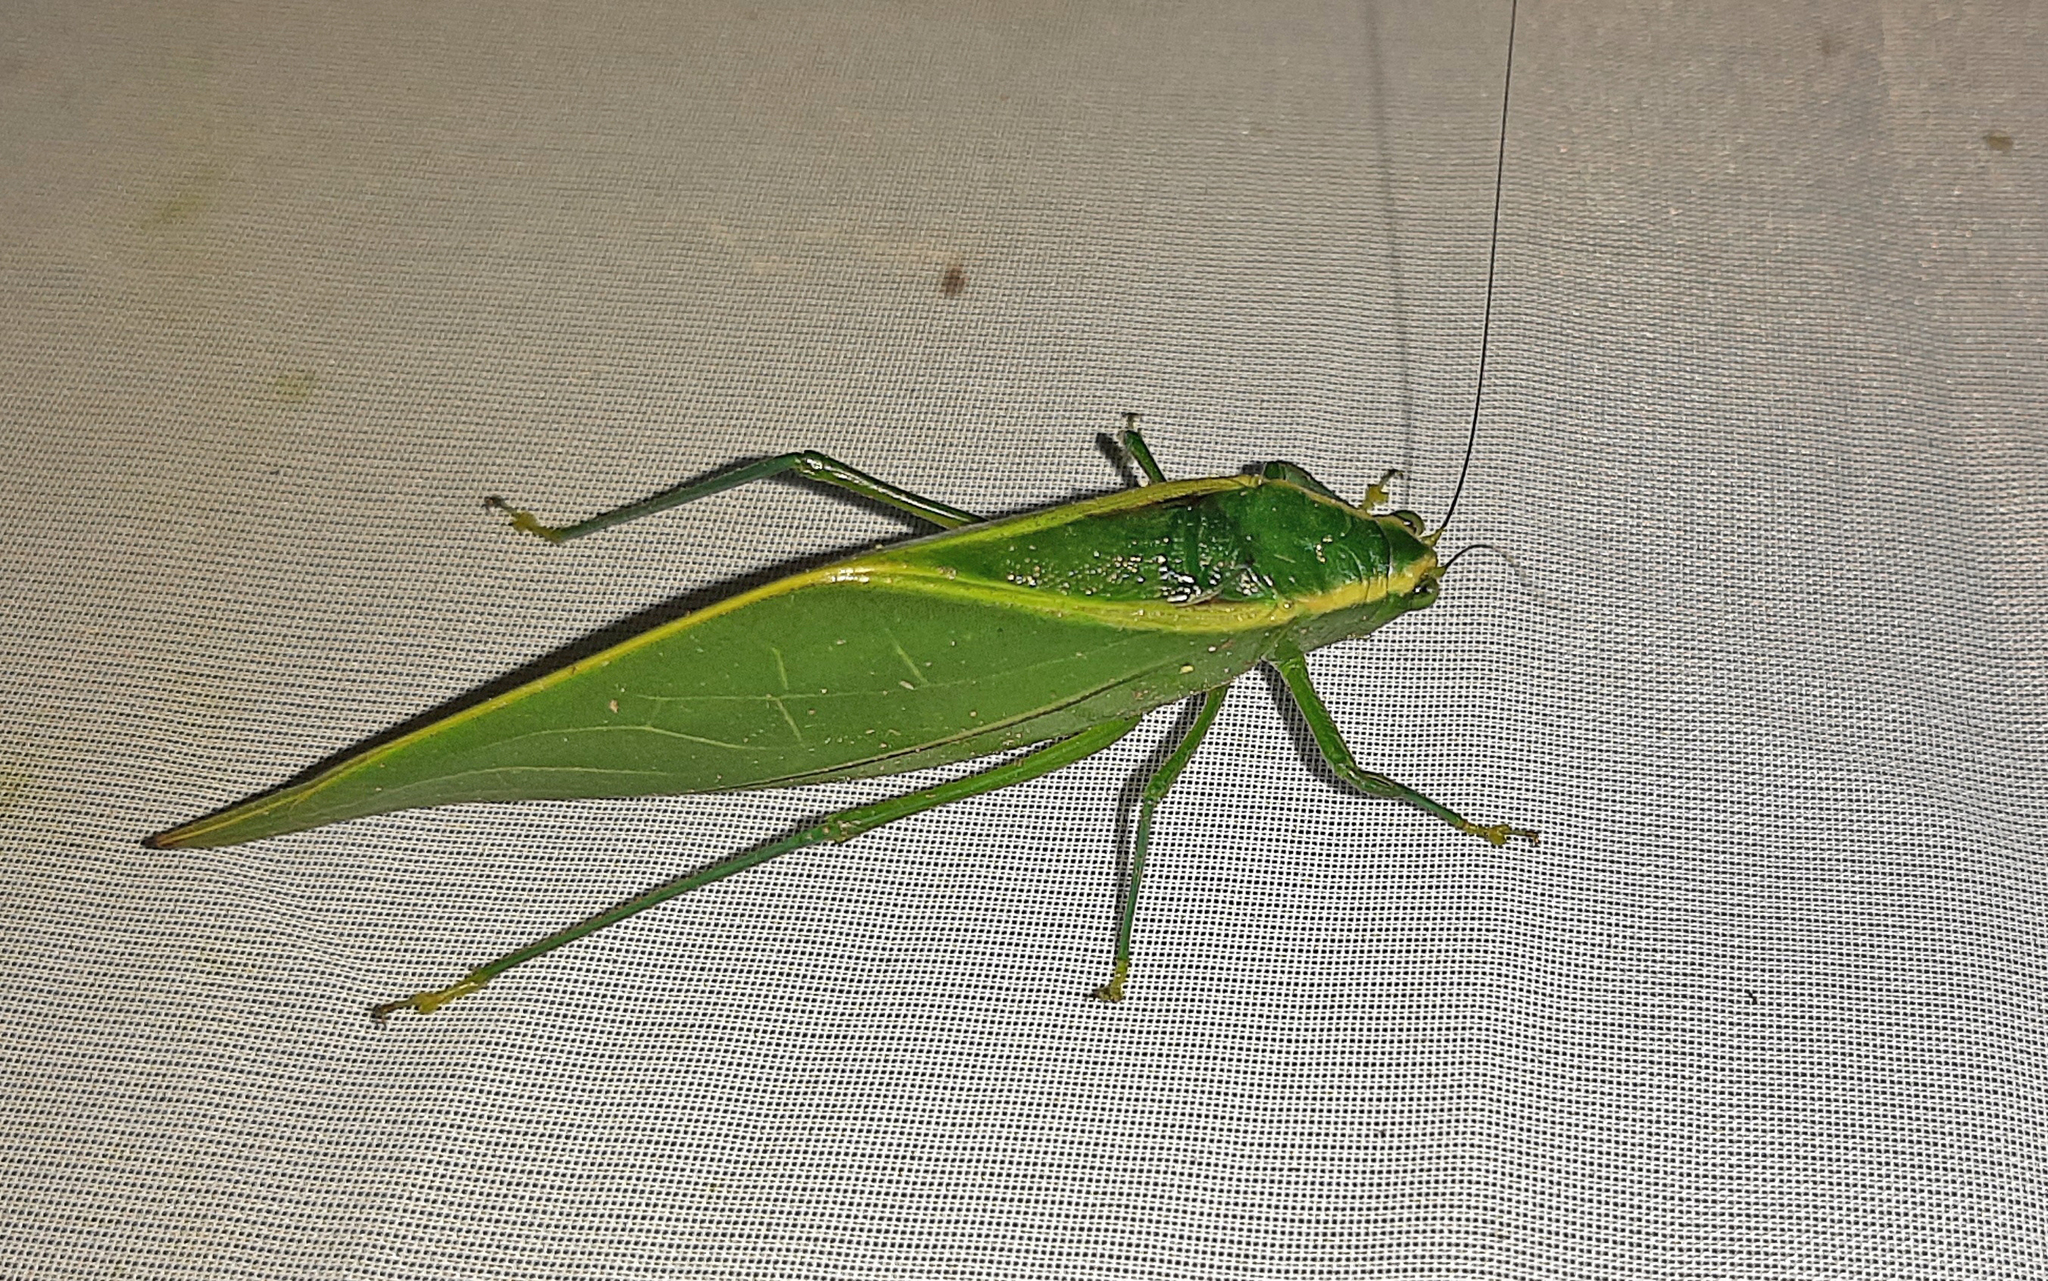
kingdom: Animalia
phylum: Arthropoda
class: Insecta
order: Orthoptera
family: Tettigoniidae
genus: Acropsis
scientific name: Acropsis tectiformis
